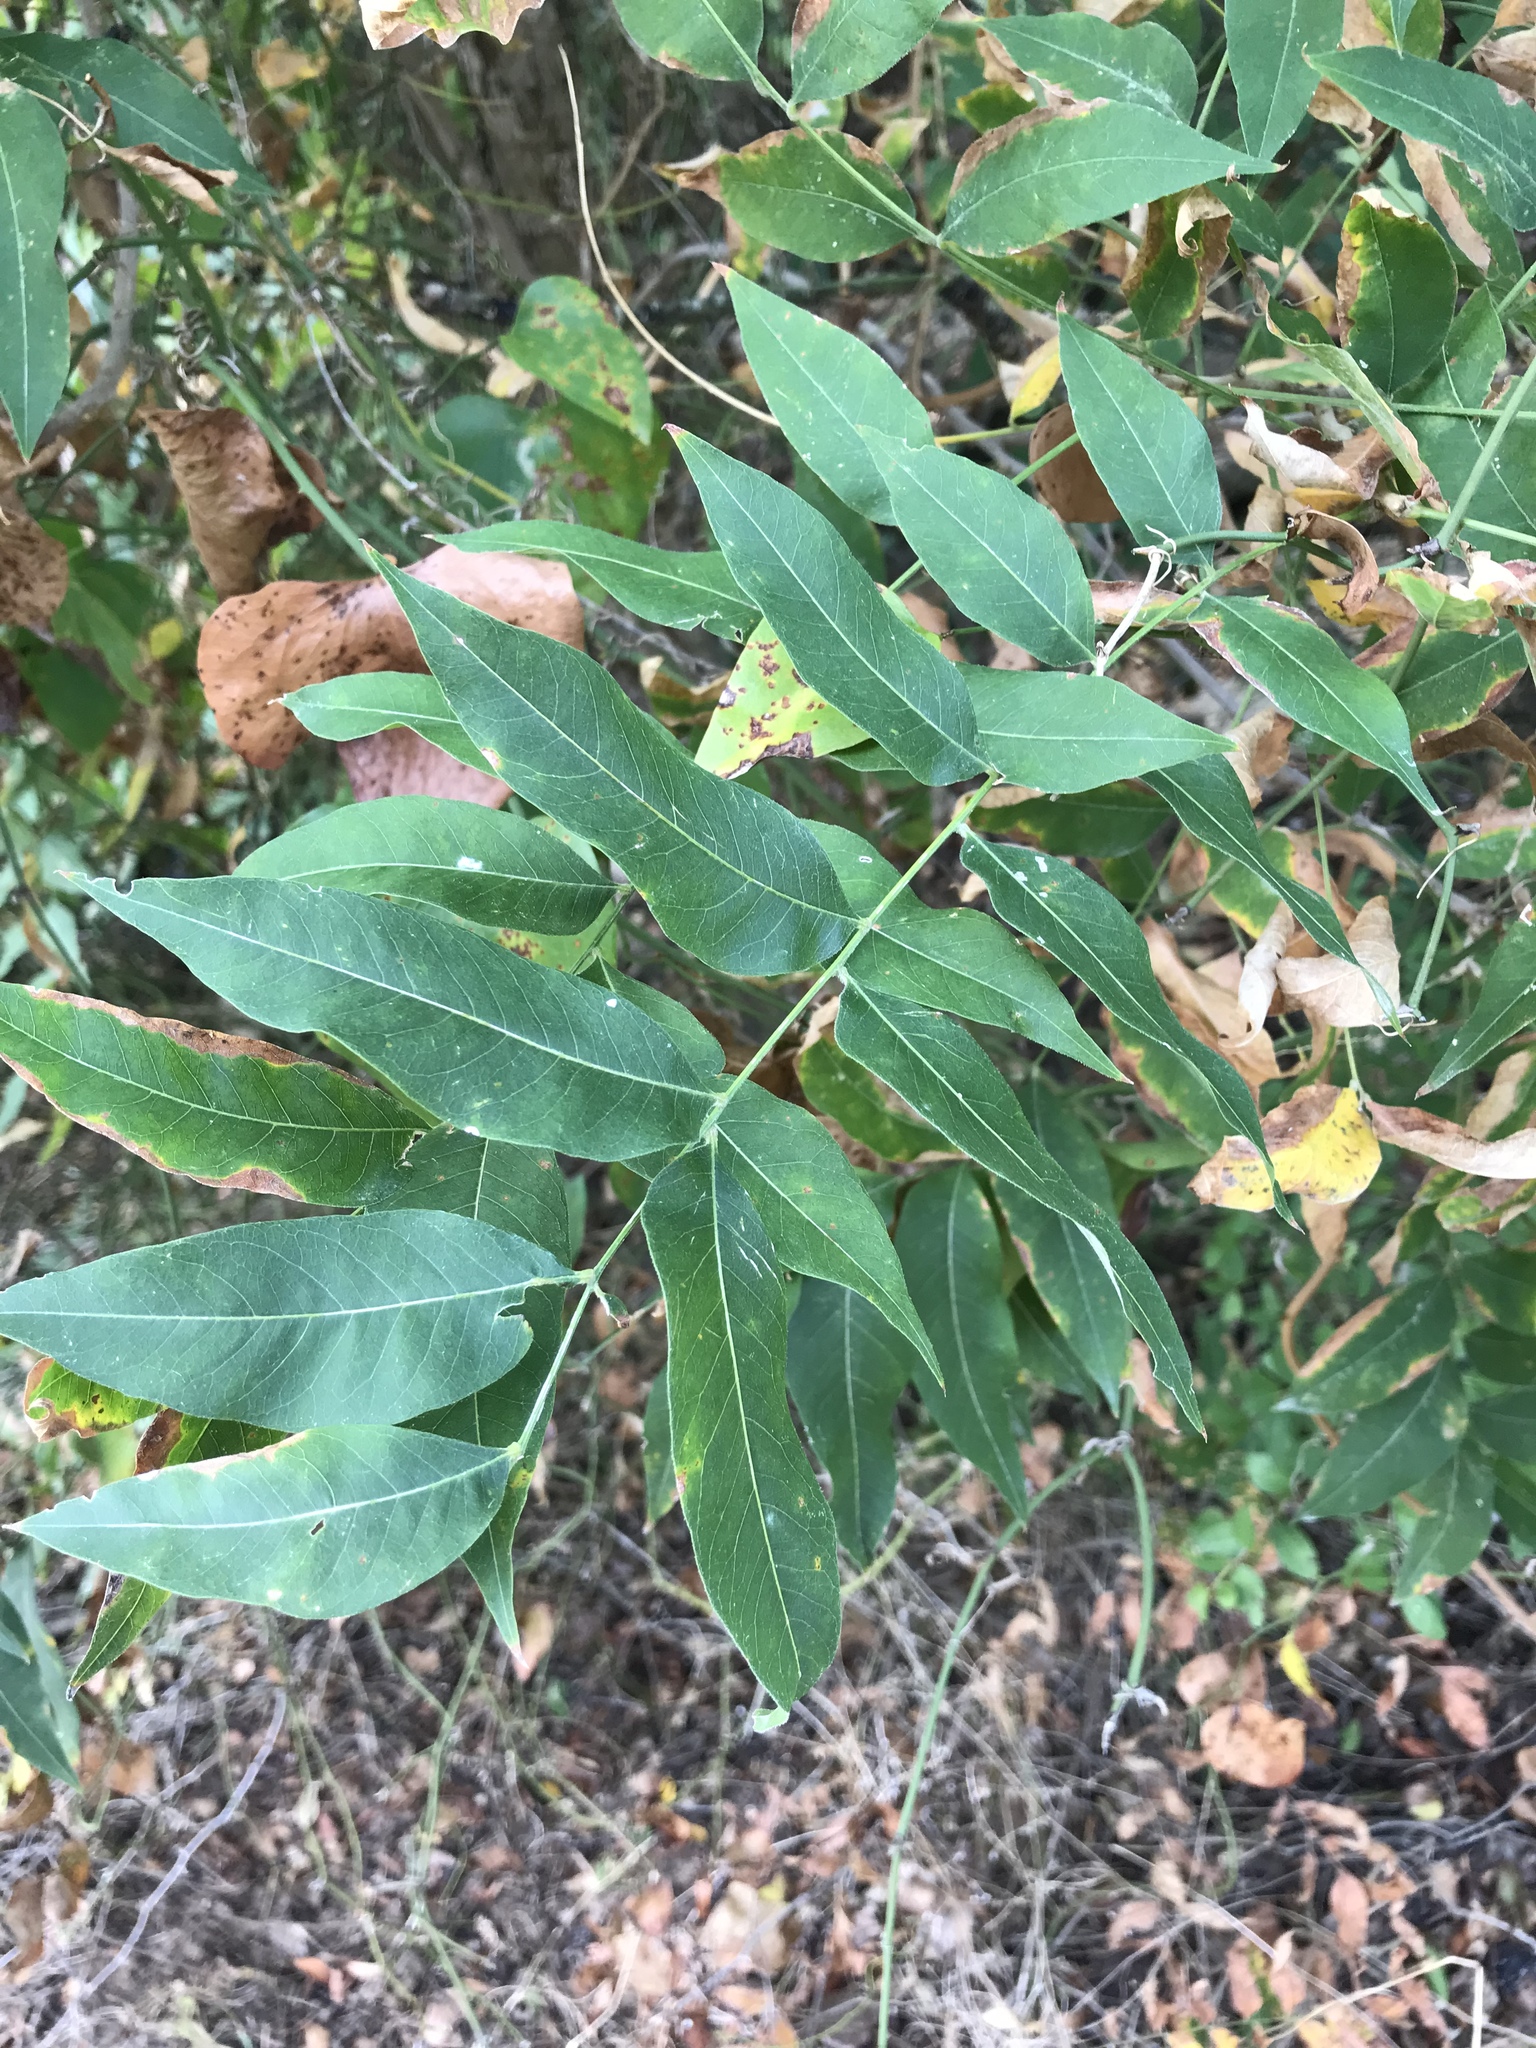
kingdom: Plantae
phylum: Tracheophyta
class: Magnoliopsida
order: Sapindales
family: Sapindaceae
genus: Sapindus
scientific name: Sapindus drummondii
